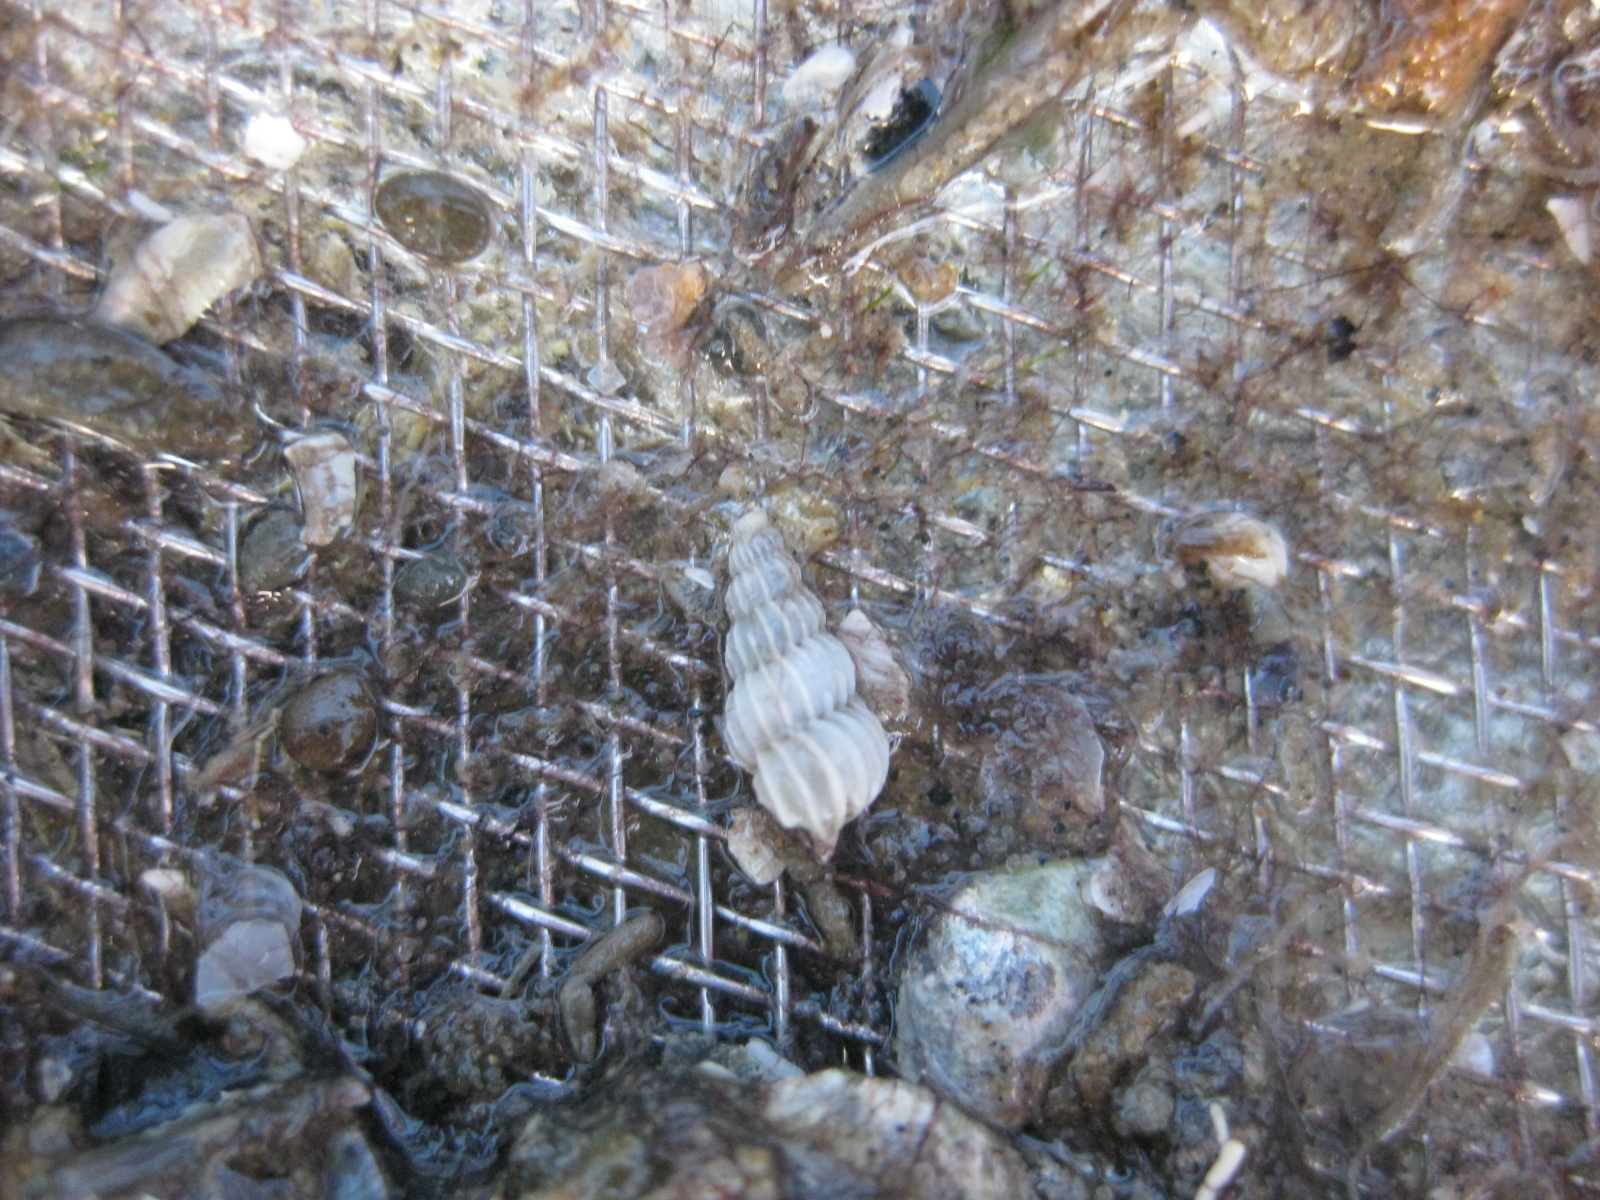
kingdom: Animalia
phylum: Mollusca
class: Gastropoda
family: Epitoniidae
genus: Epitonium
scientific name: Epitonium bucknilli
